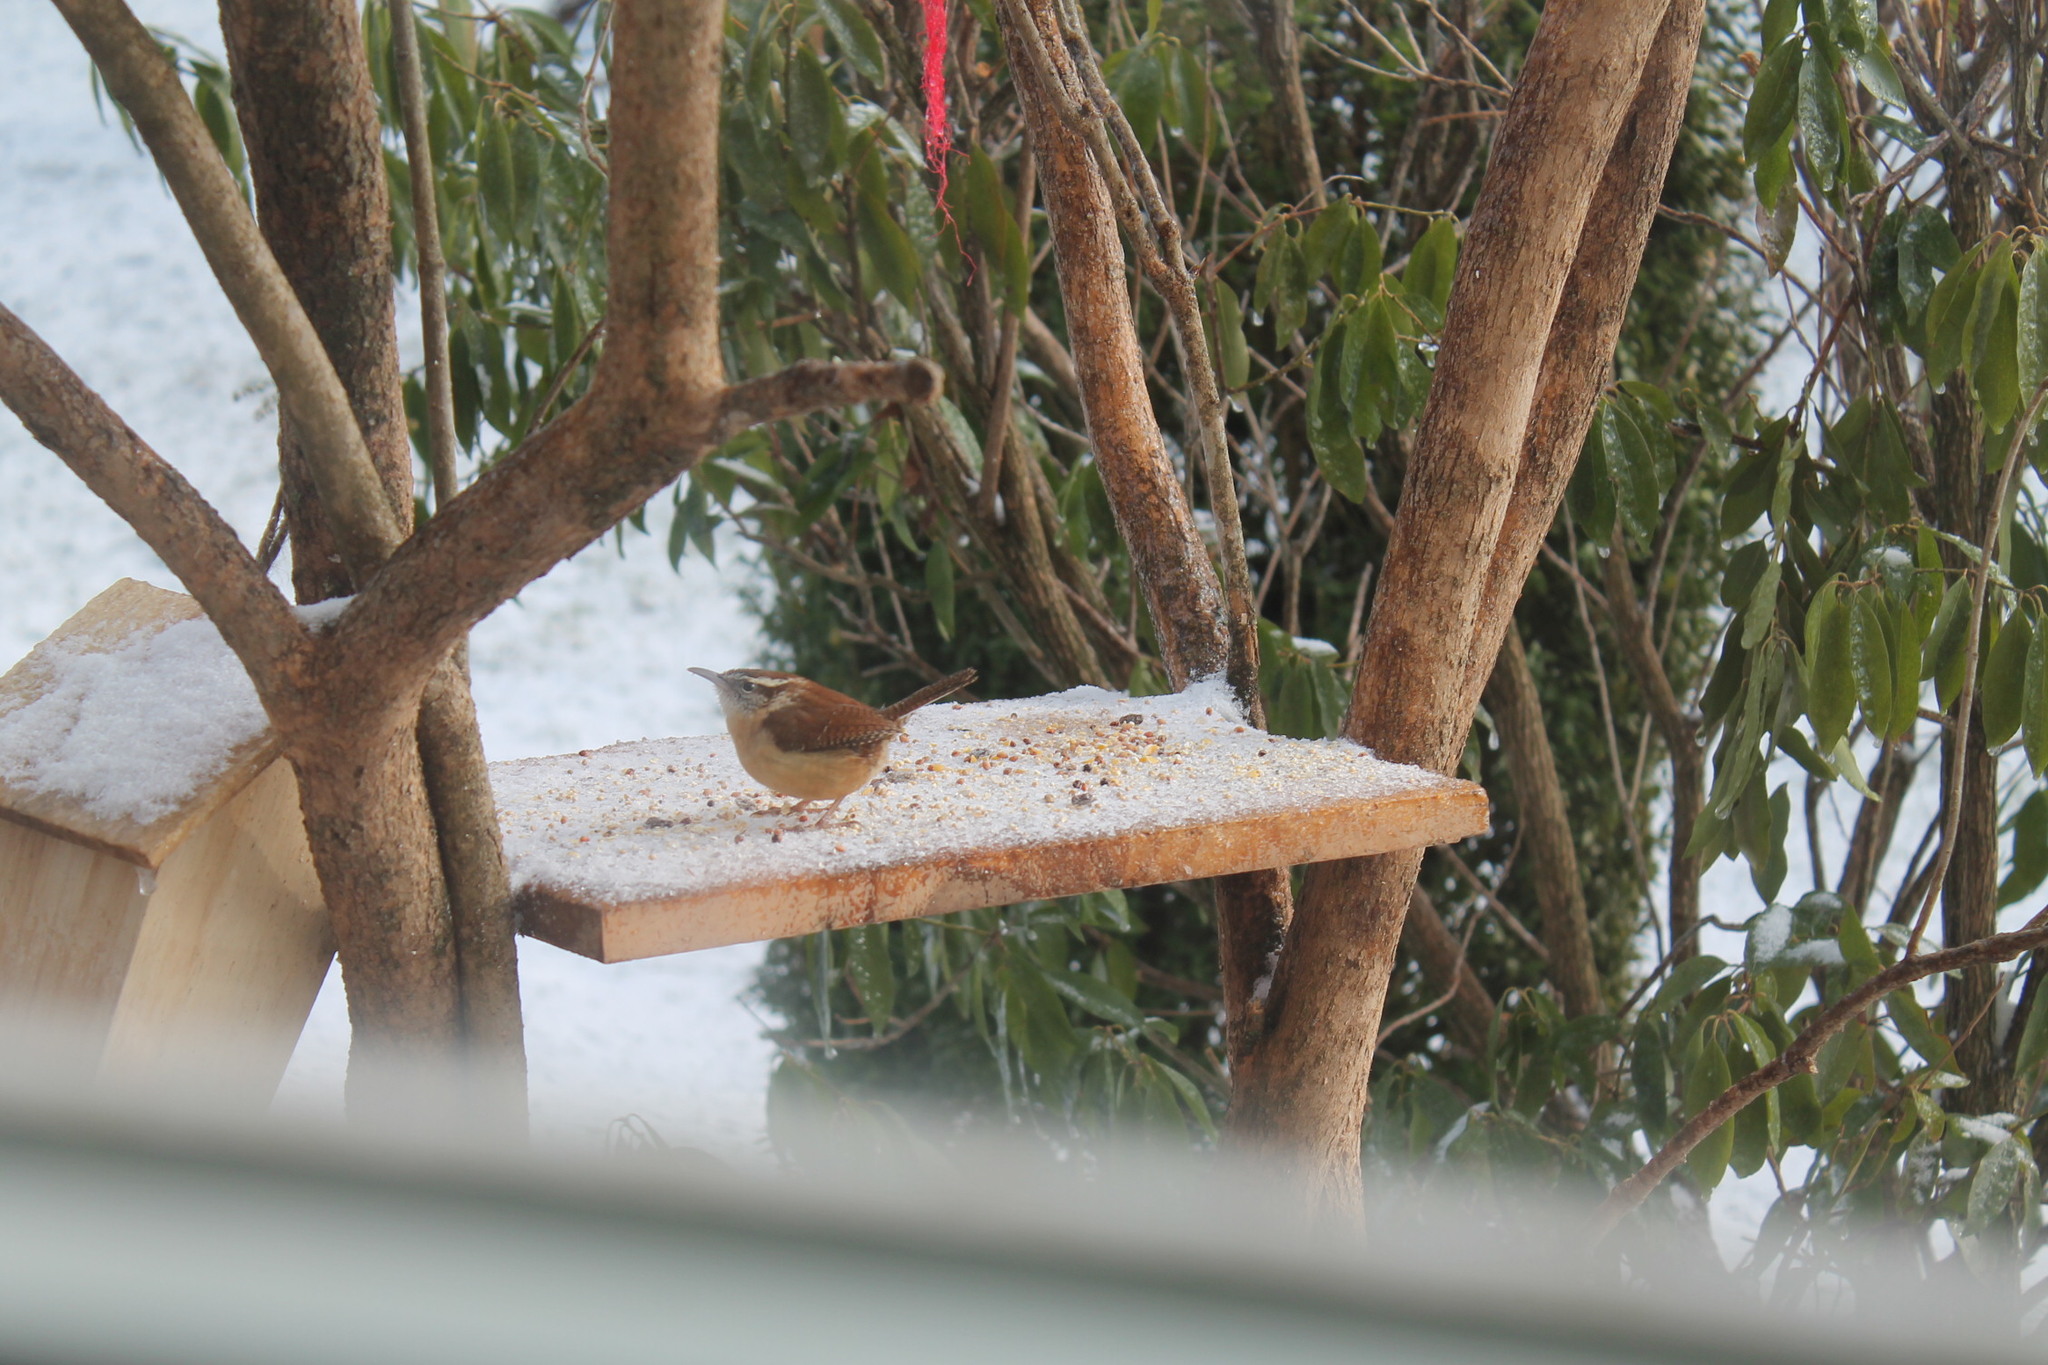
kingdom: Animalia
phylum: Chordata
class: Aves
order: Passeriformes
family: Troglodytidae
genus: Thryothorus
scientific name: Thryothorus ludovicianus
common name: Carolina wren
